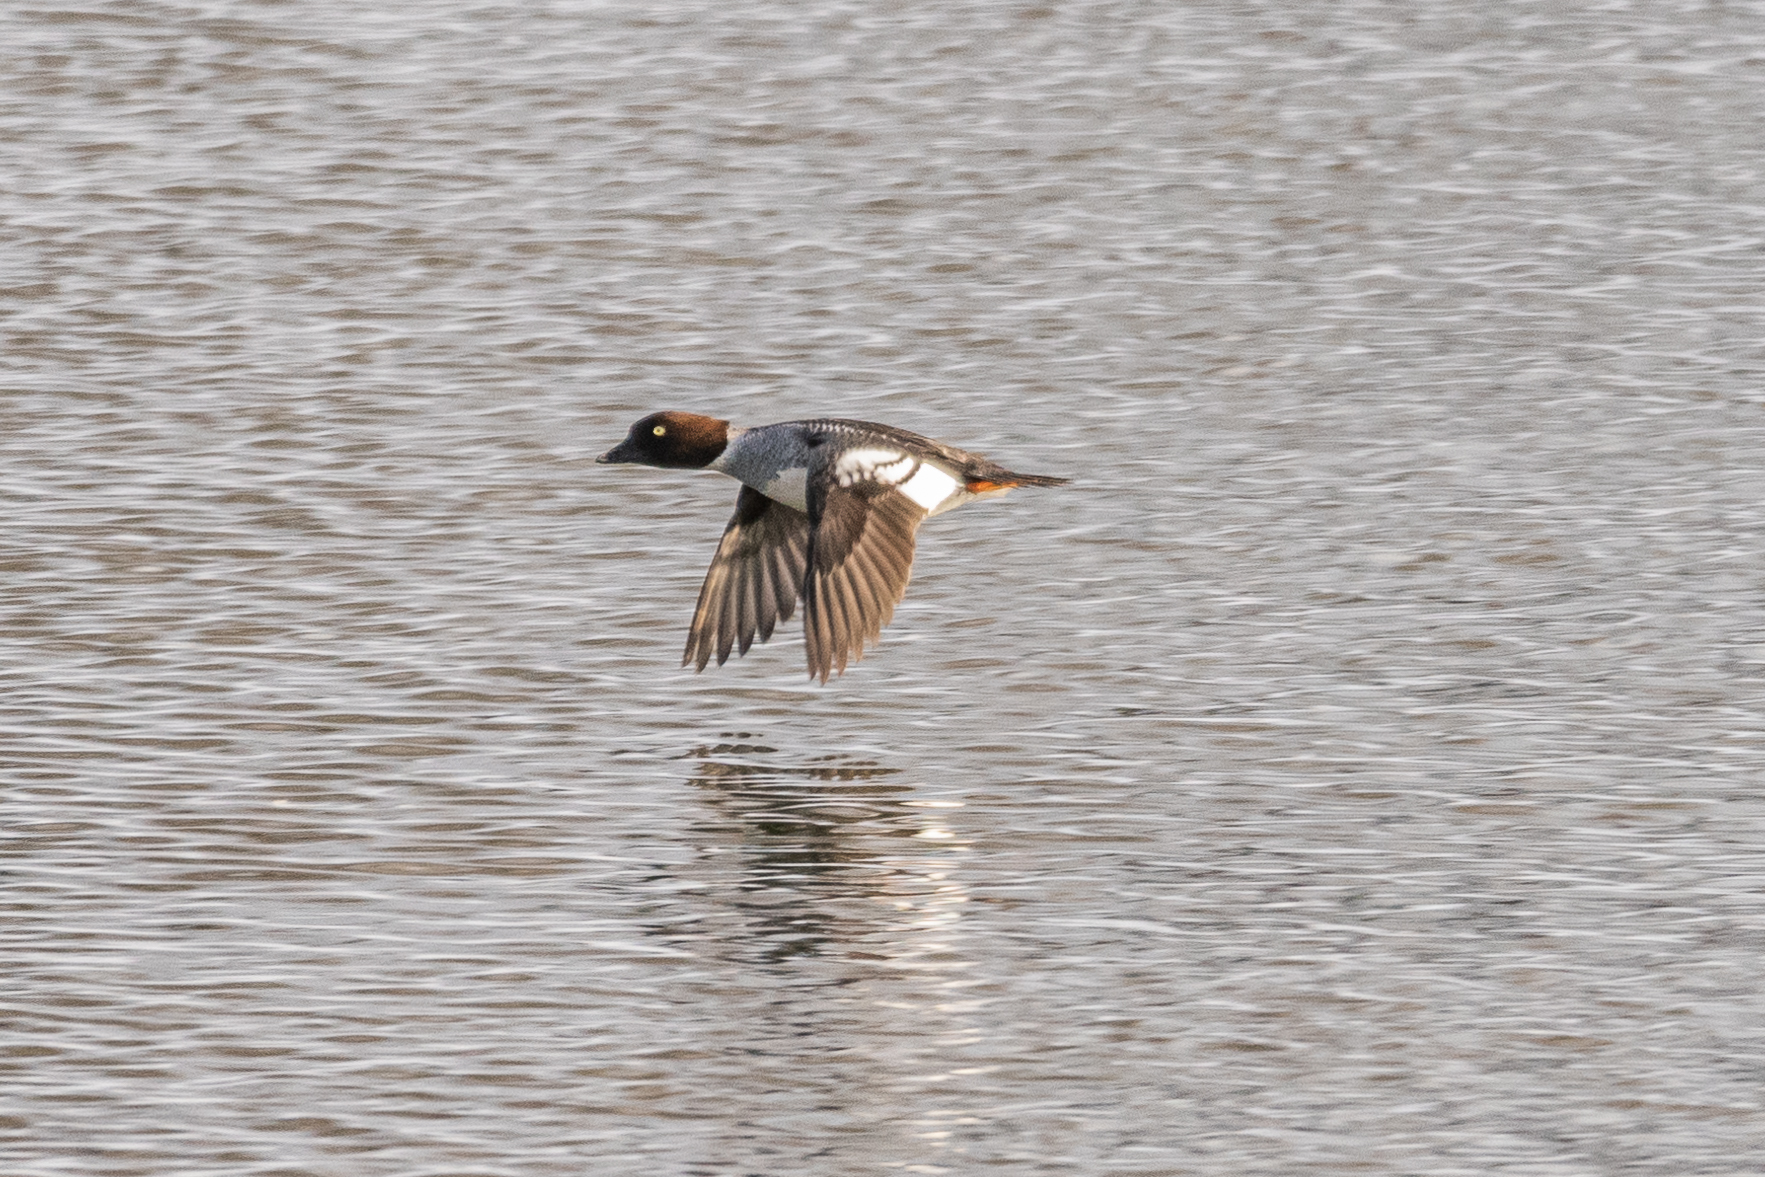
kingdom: Animalia
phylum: Chordata
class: Aves
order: Anseriformes
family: Anatidae
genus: Bucephala
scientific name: Bucephala clangula
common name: Common goldeneye
